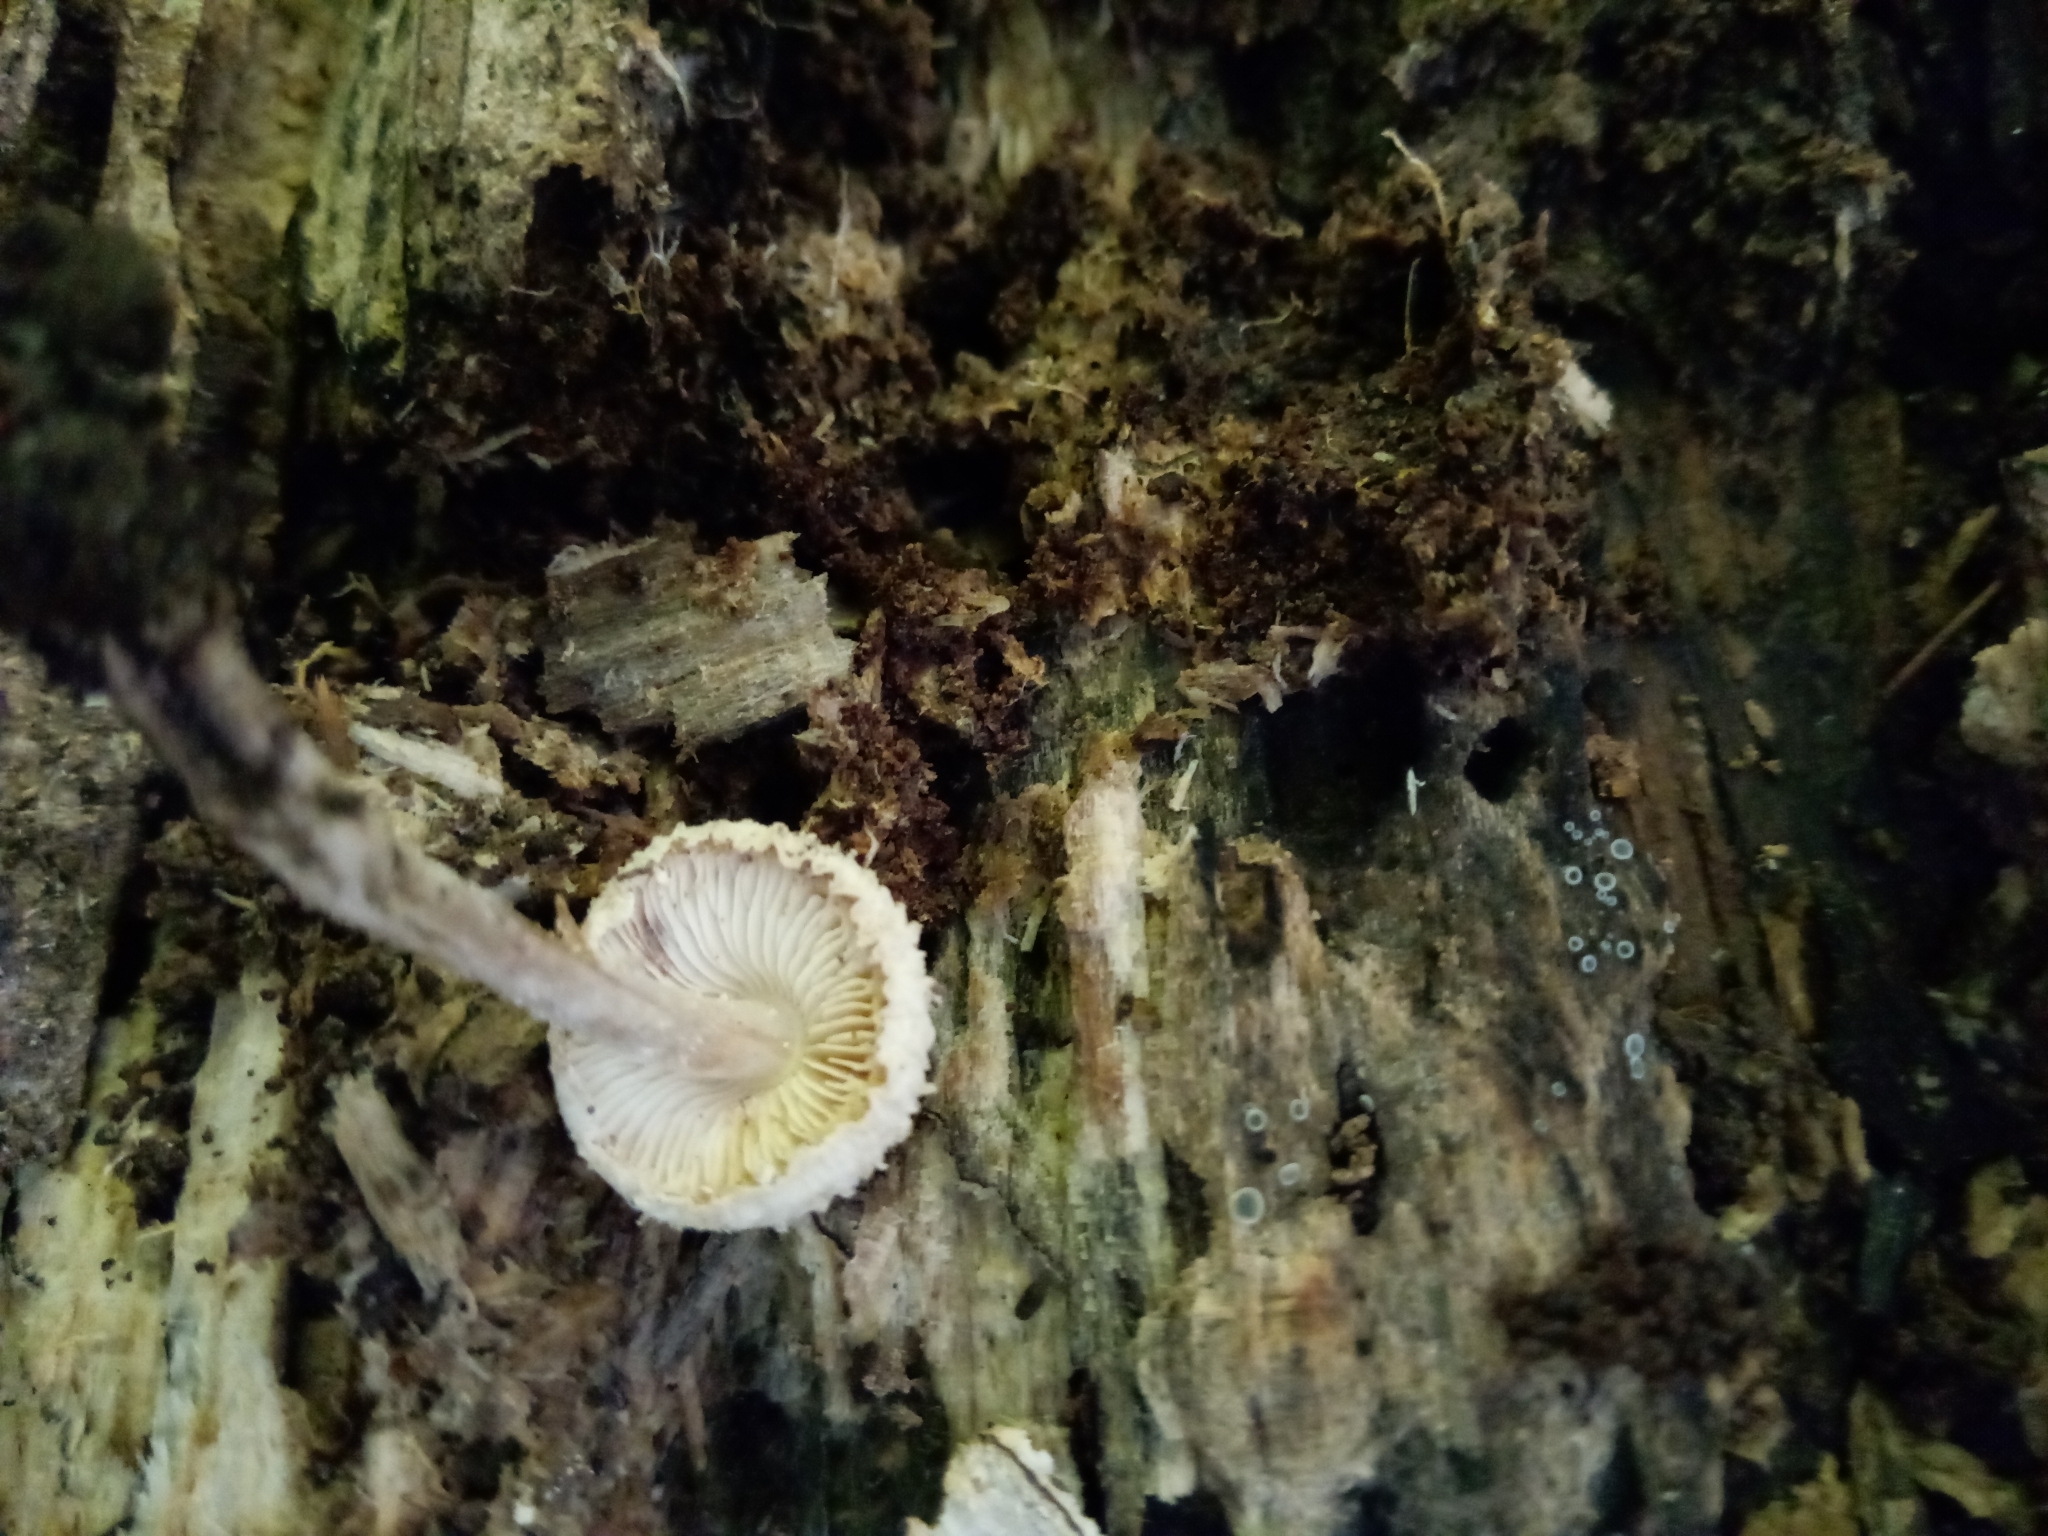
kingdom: Fungi
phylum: Basidiomycota
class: Agaricomycetes
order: Agaricales
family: Agaricaceae
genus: Cystolepiota
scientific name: Cystolepiota fumosifolia
